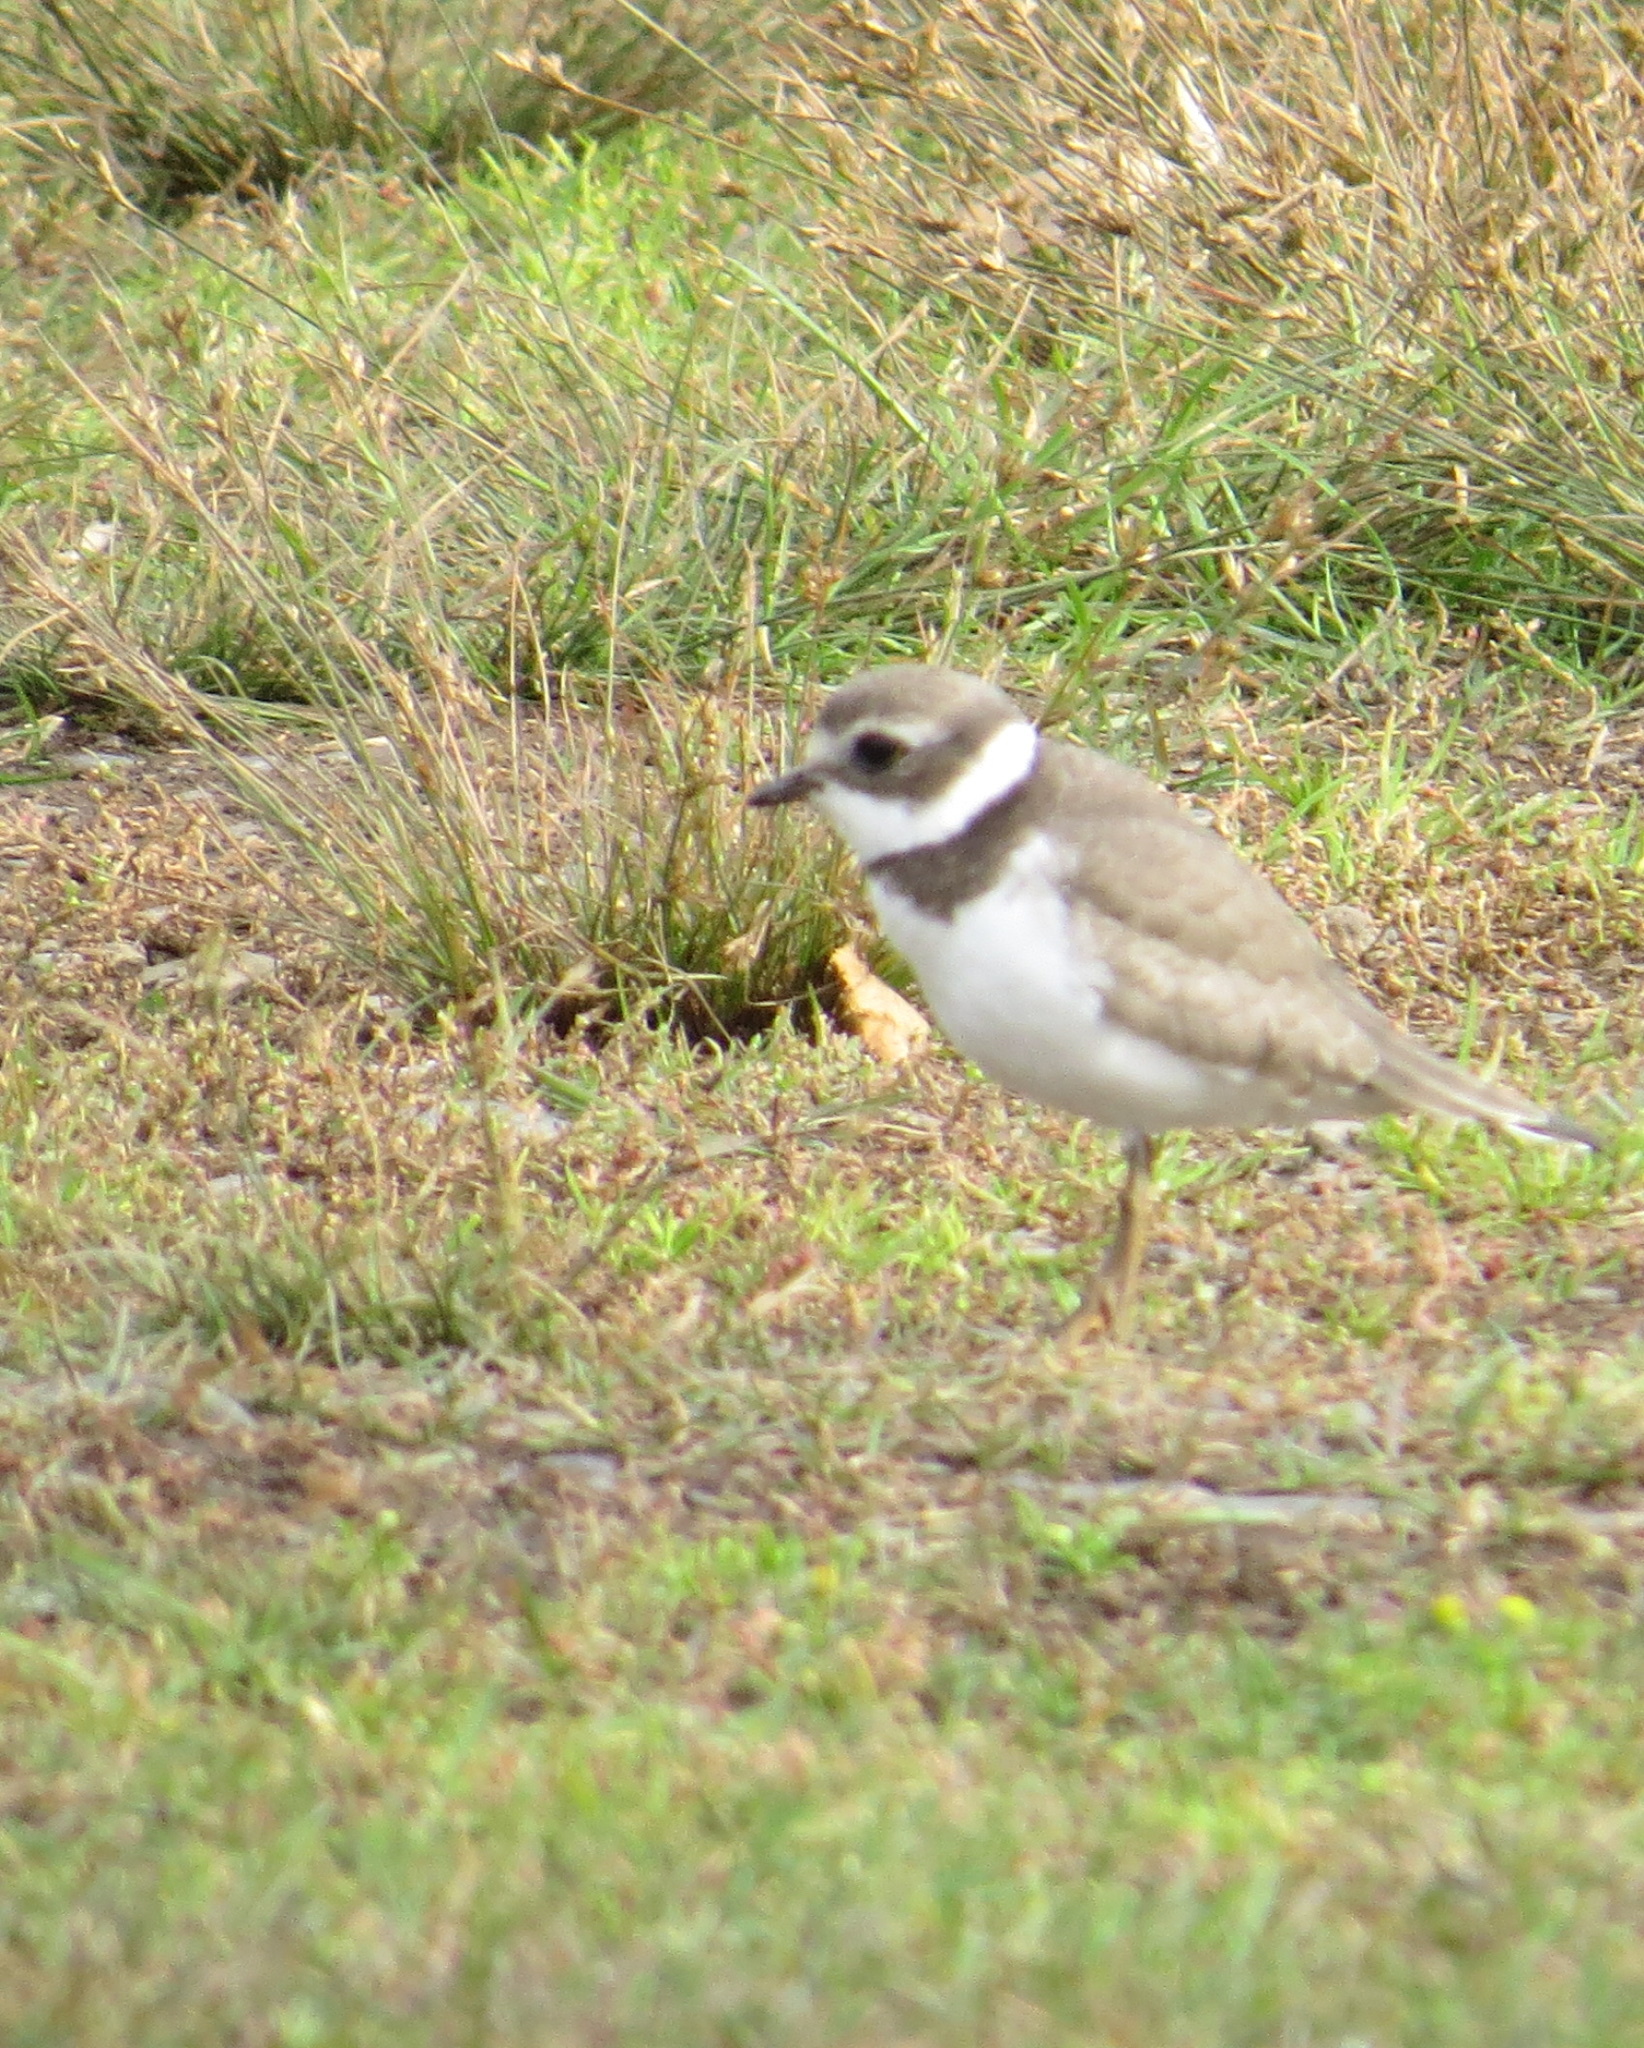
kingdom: Animalia
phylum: Chordata
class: Aves
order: Charadriiformes
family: Charadriidae
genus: Charadrius
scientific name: Charadrius semipalmatus
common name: Semipalmated plover
